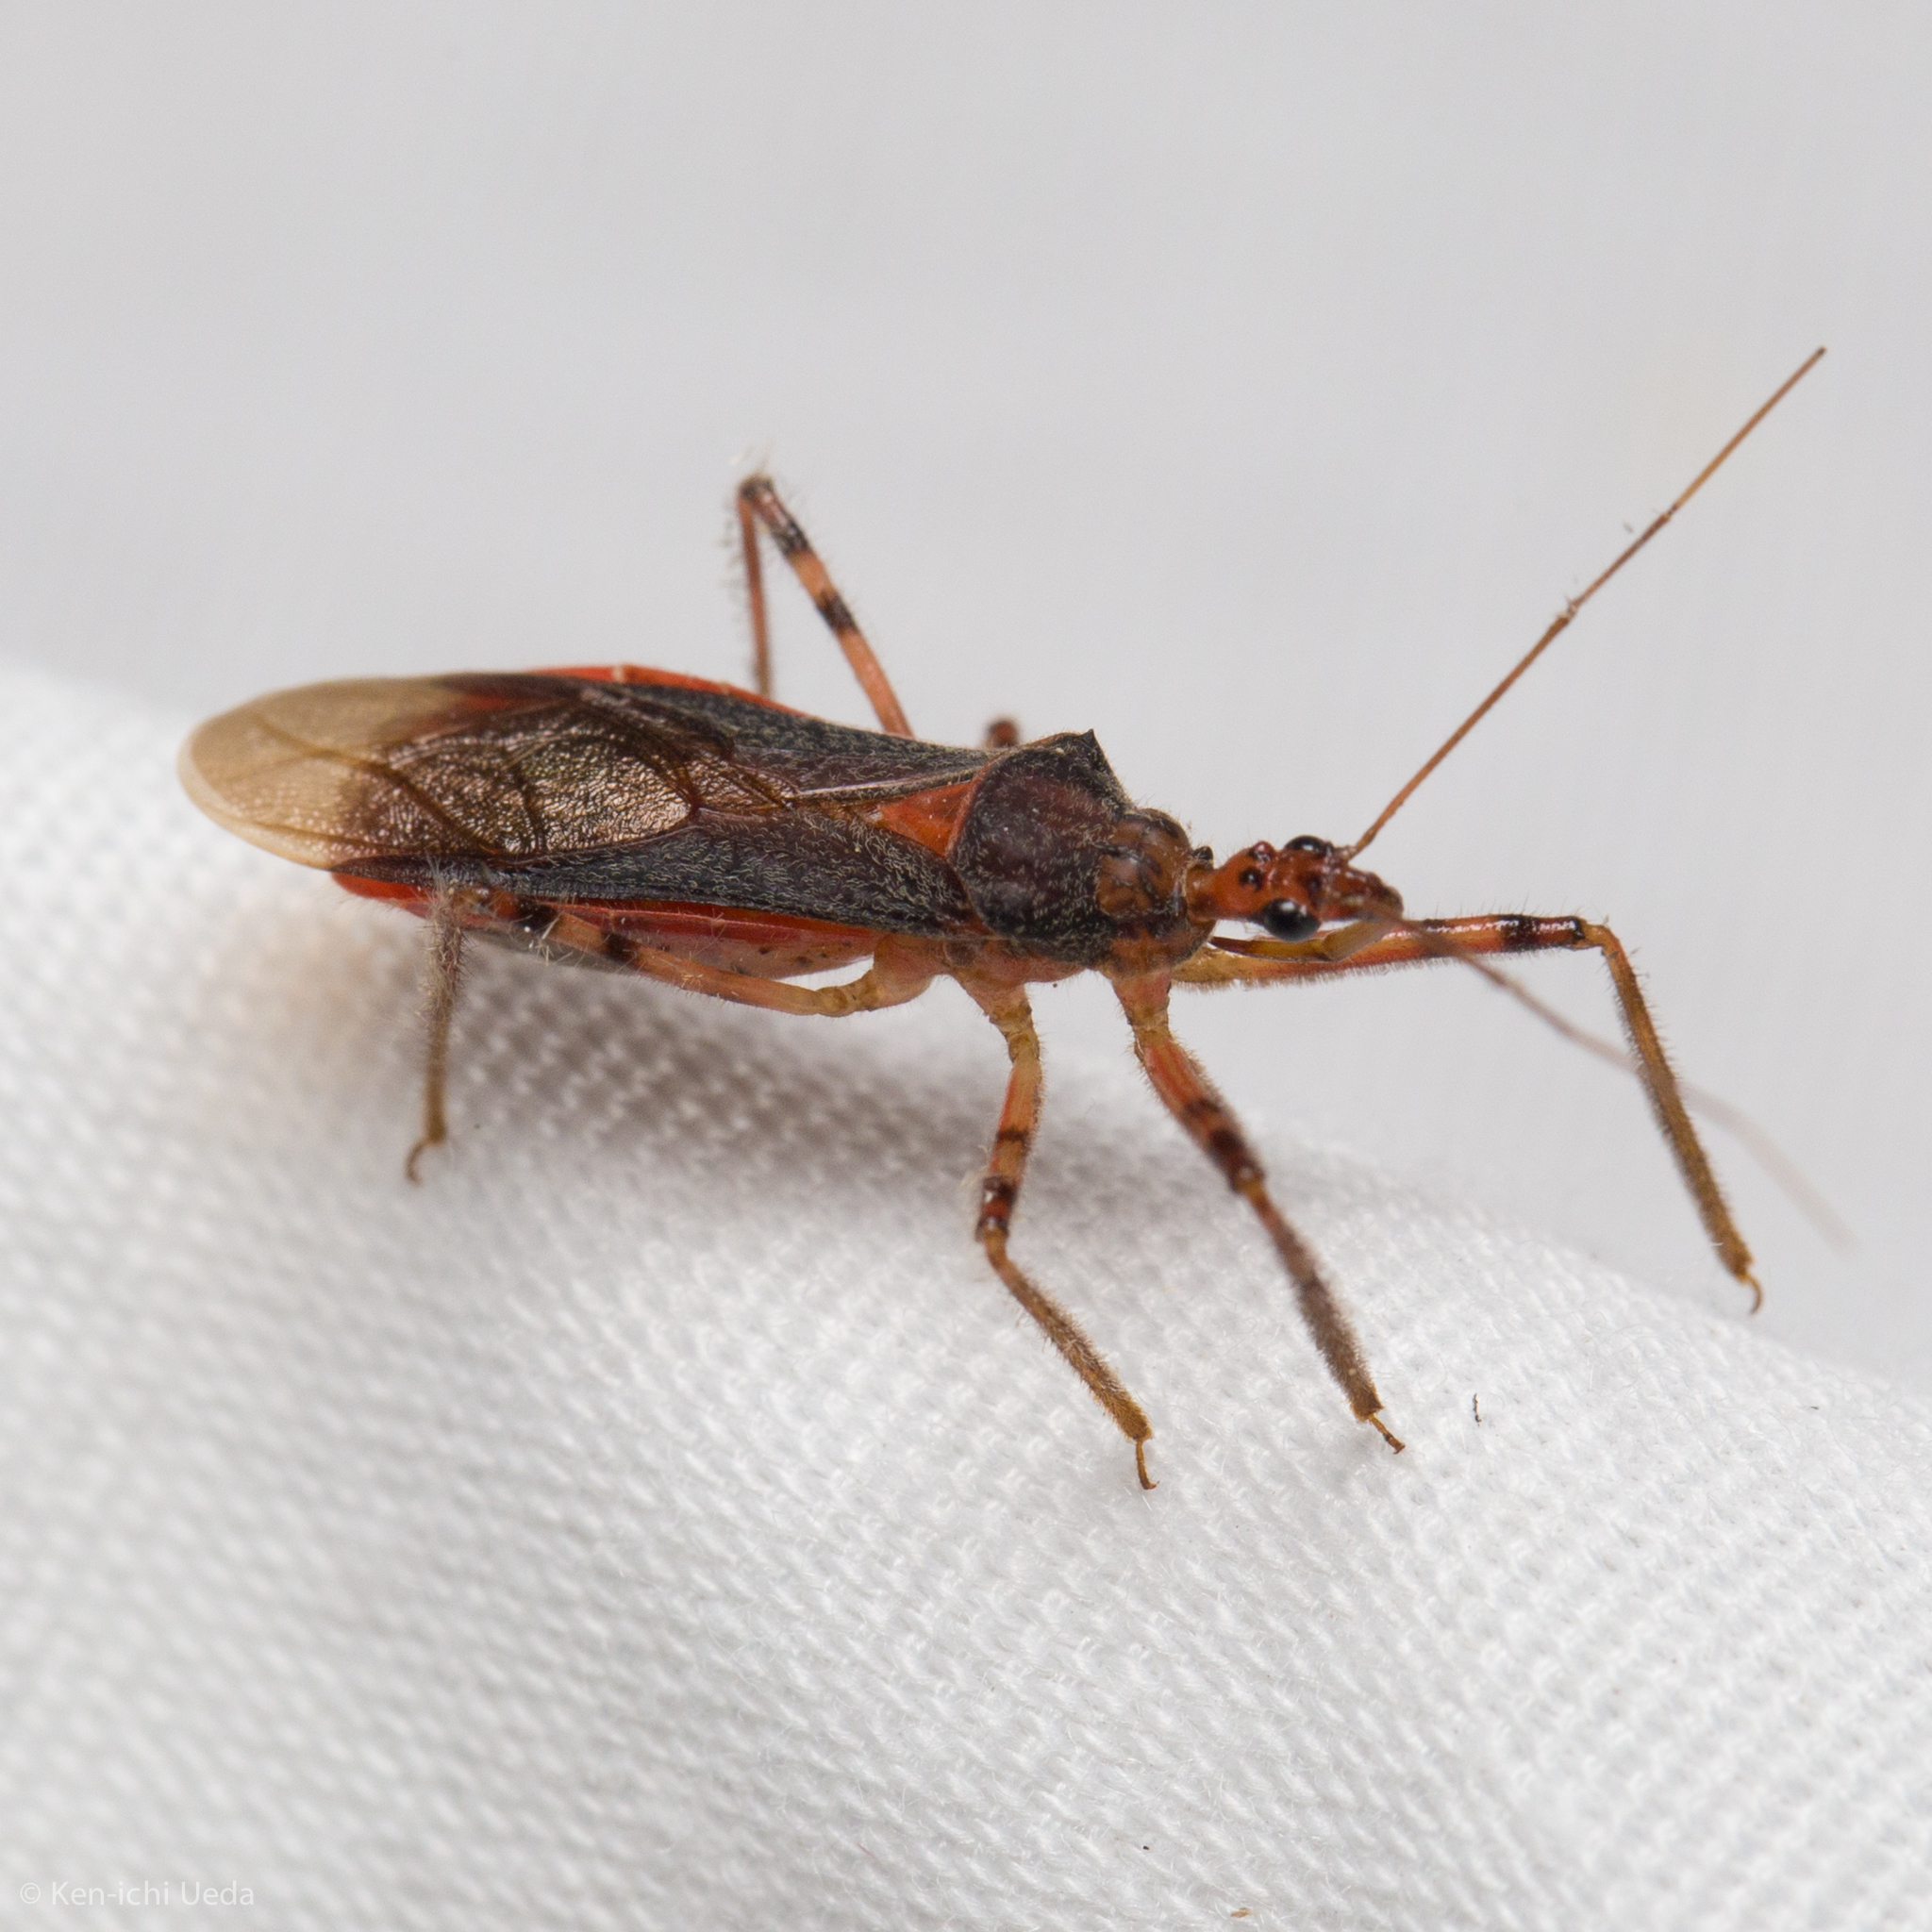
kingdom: Animalia
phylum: Arthropoda
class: Insecta
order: Hemiptera
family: Reduviidae
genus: Castolus
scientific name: Castolus ferox
